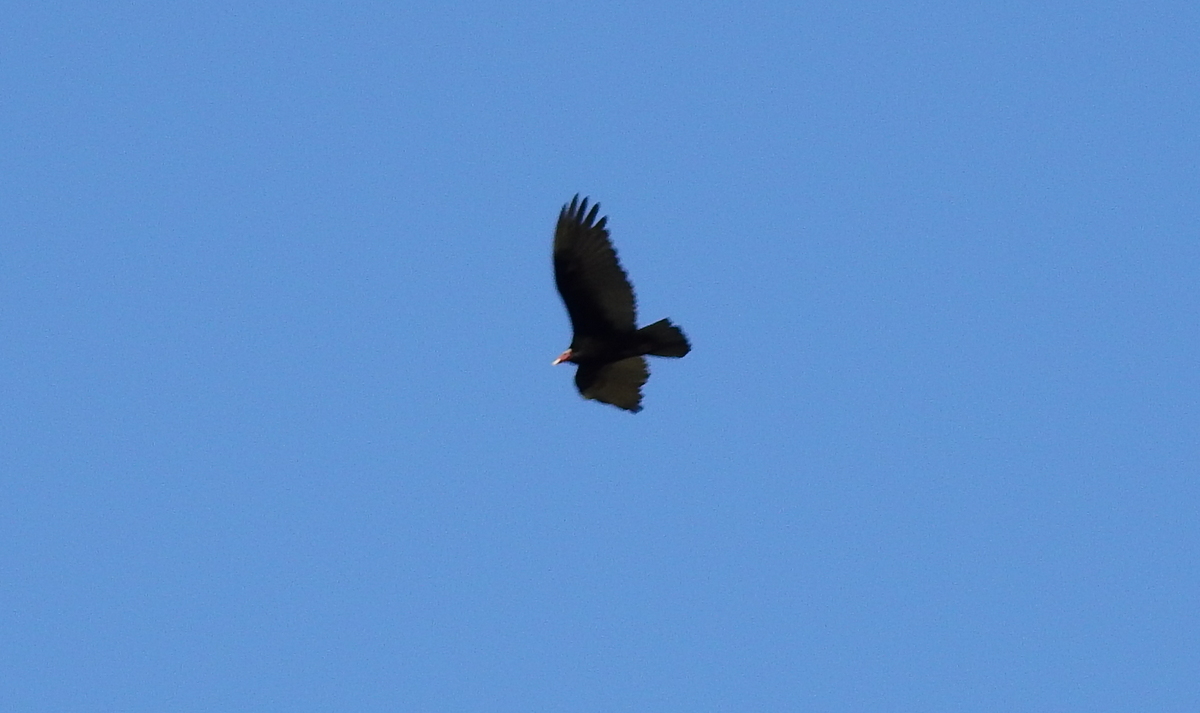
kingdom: Animalia
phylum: Chordata
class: Aves
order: Accipitriformes
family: Cathartidae
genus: Cathartes
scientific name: Cathartes aura
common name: Turkey vulture
